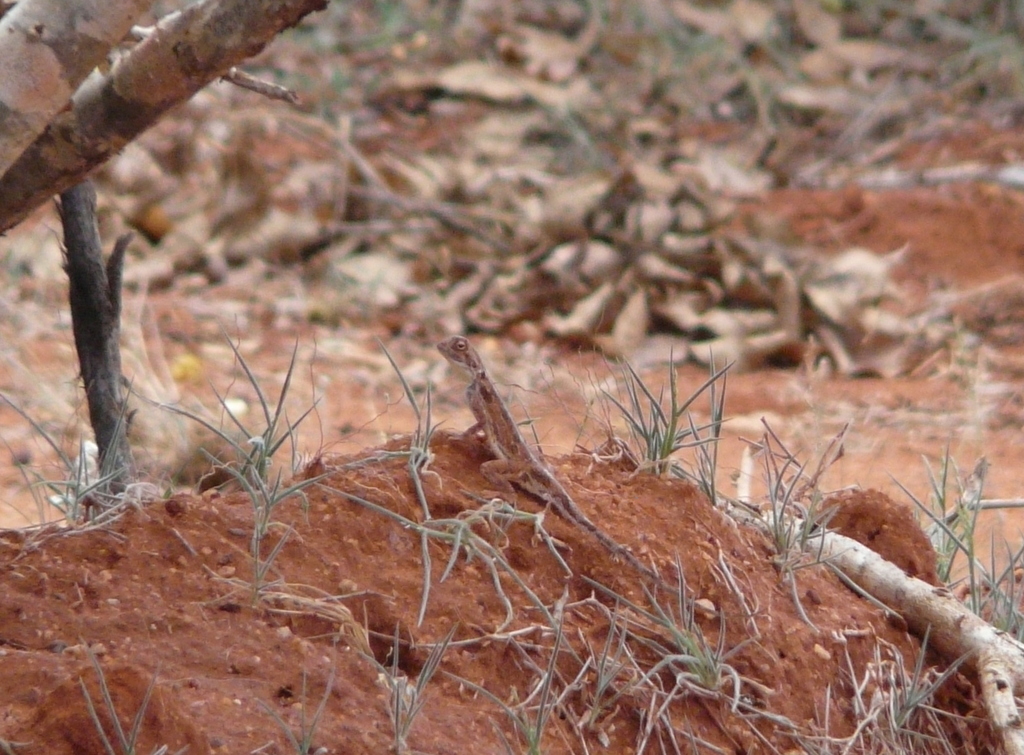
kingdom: Animalia
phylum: Chordata
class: Squamata
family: Agamidae
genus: Agama
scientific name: Agama persimilis
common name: (somali) painted agama
